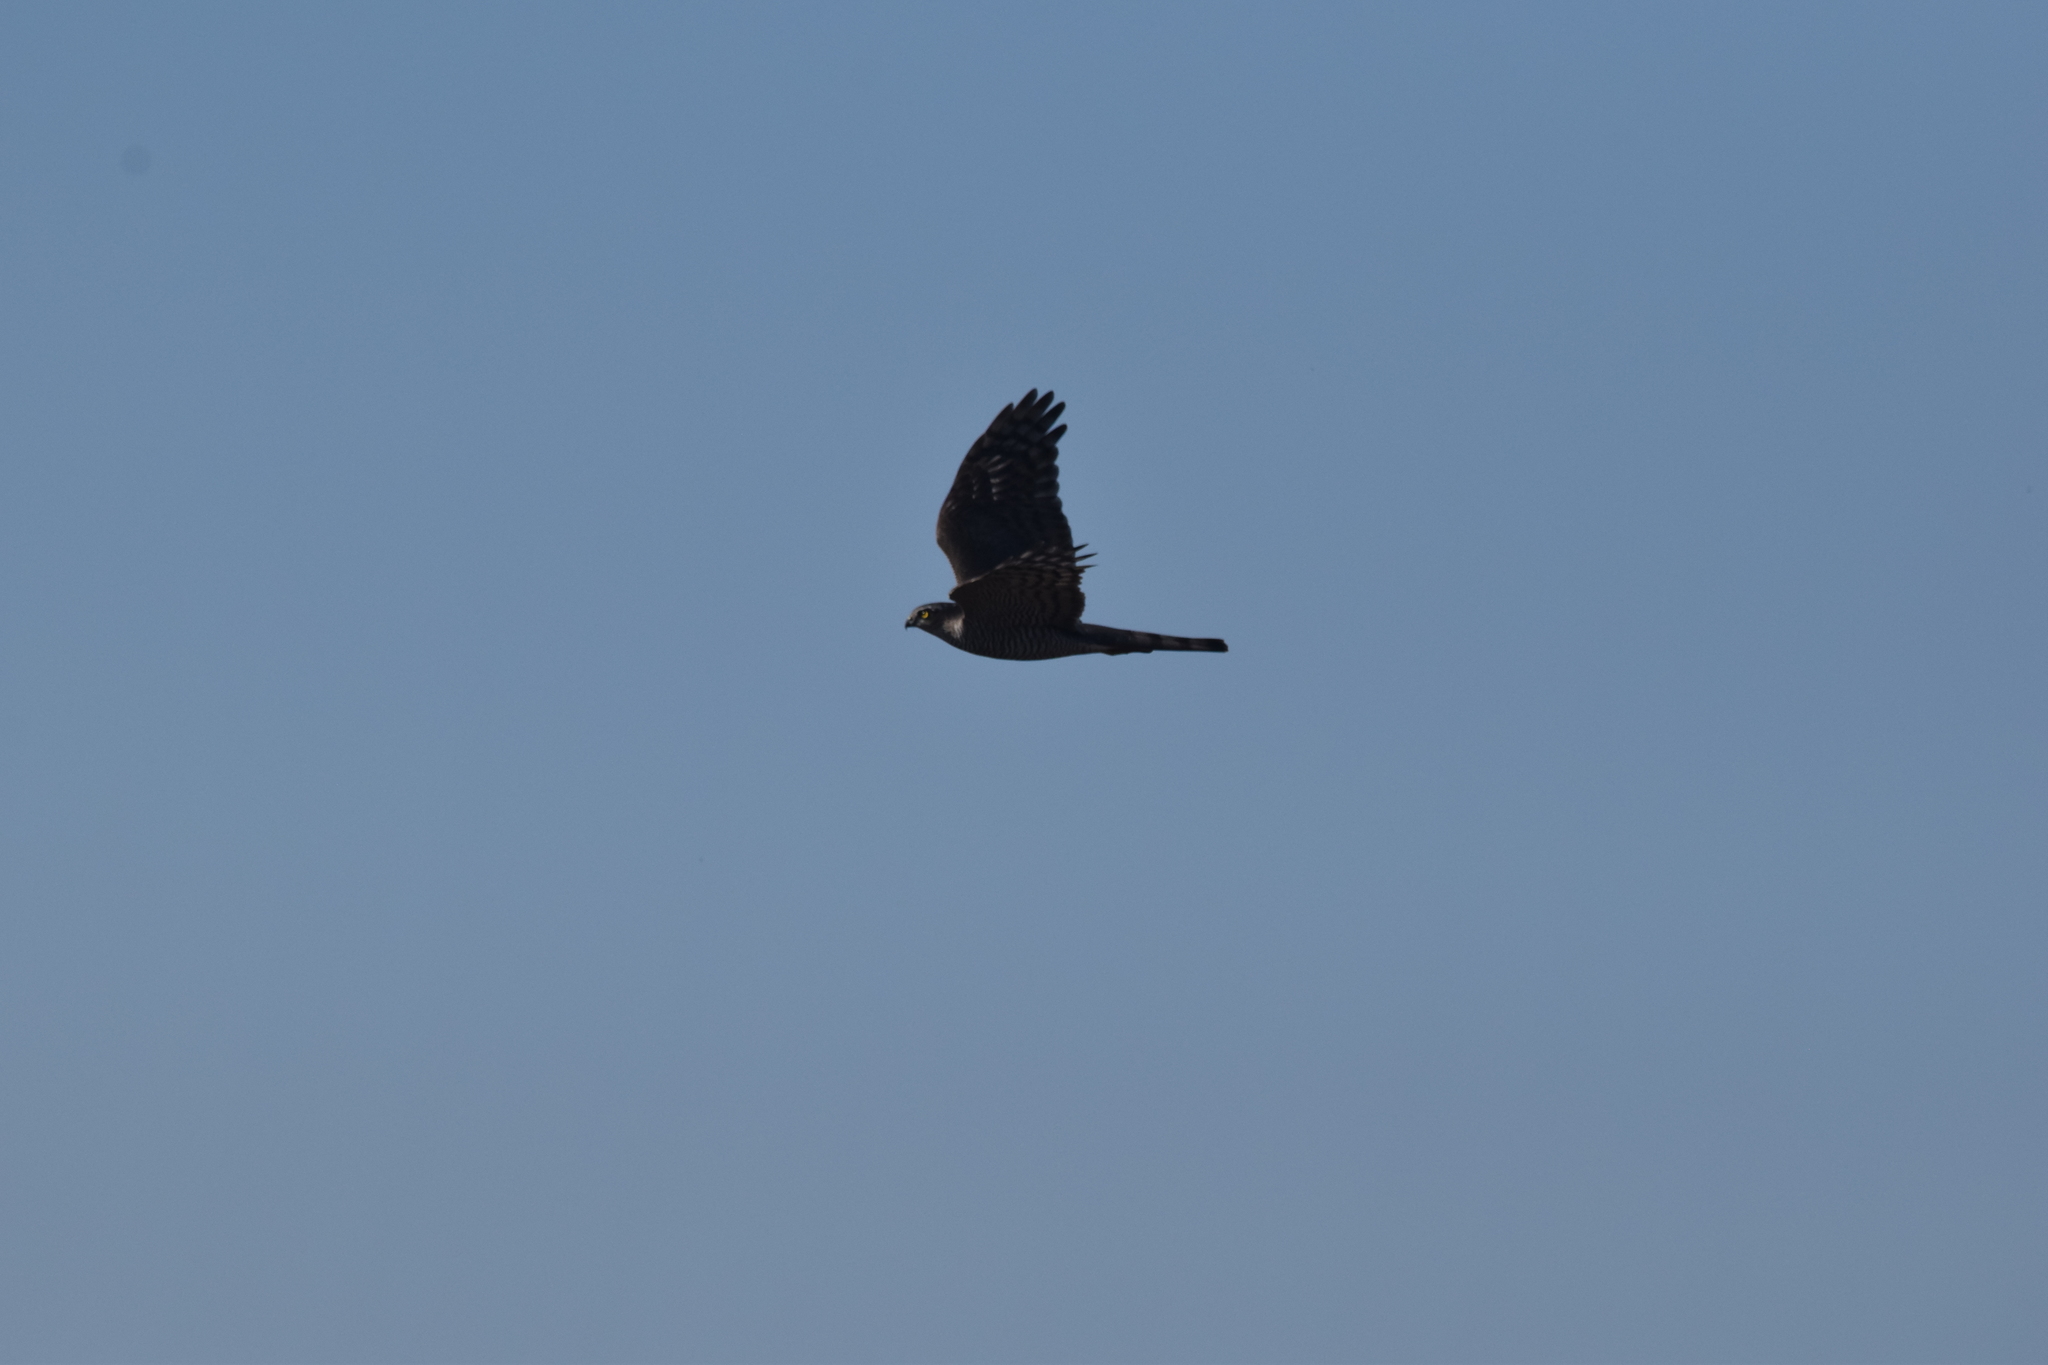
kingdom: Animalia
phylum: Chordata
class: Aves
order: Accipitriformes
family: Accipitridae
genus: Accipiter
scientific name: Accipiter nisus
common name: Eurasian sparrowhawk
